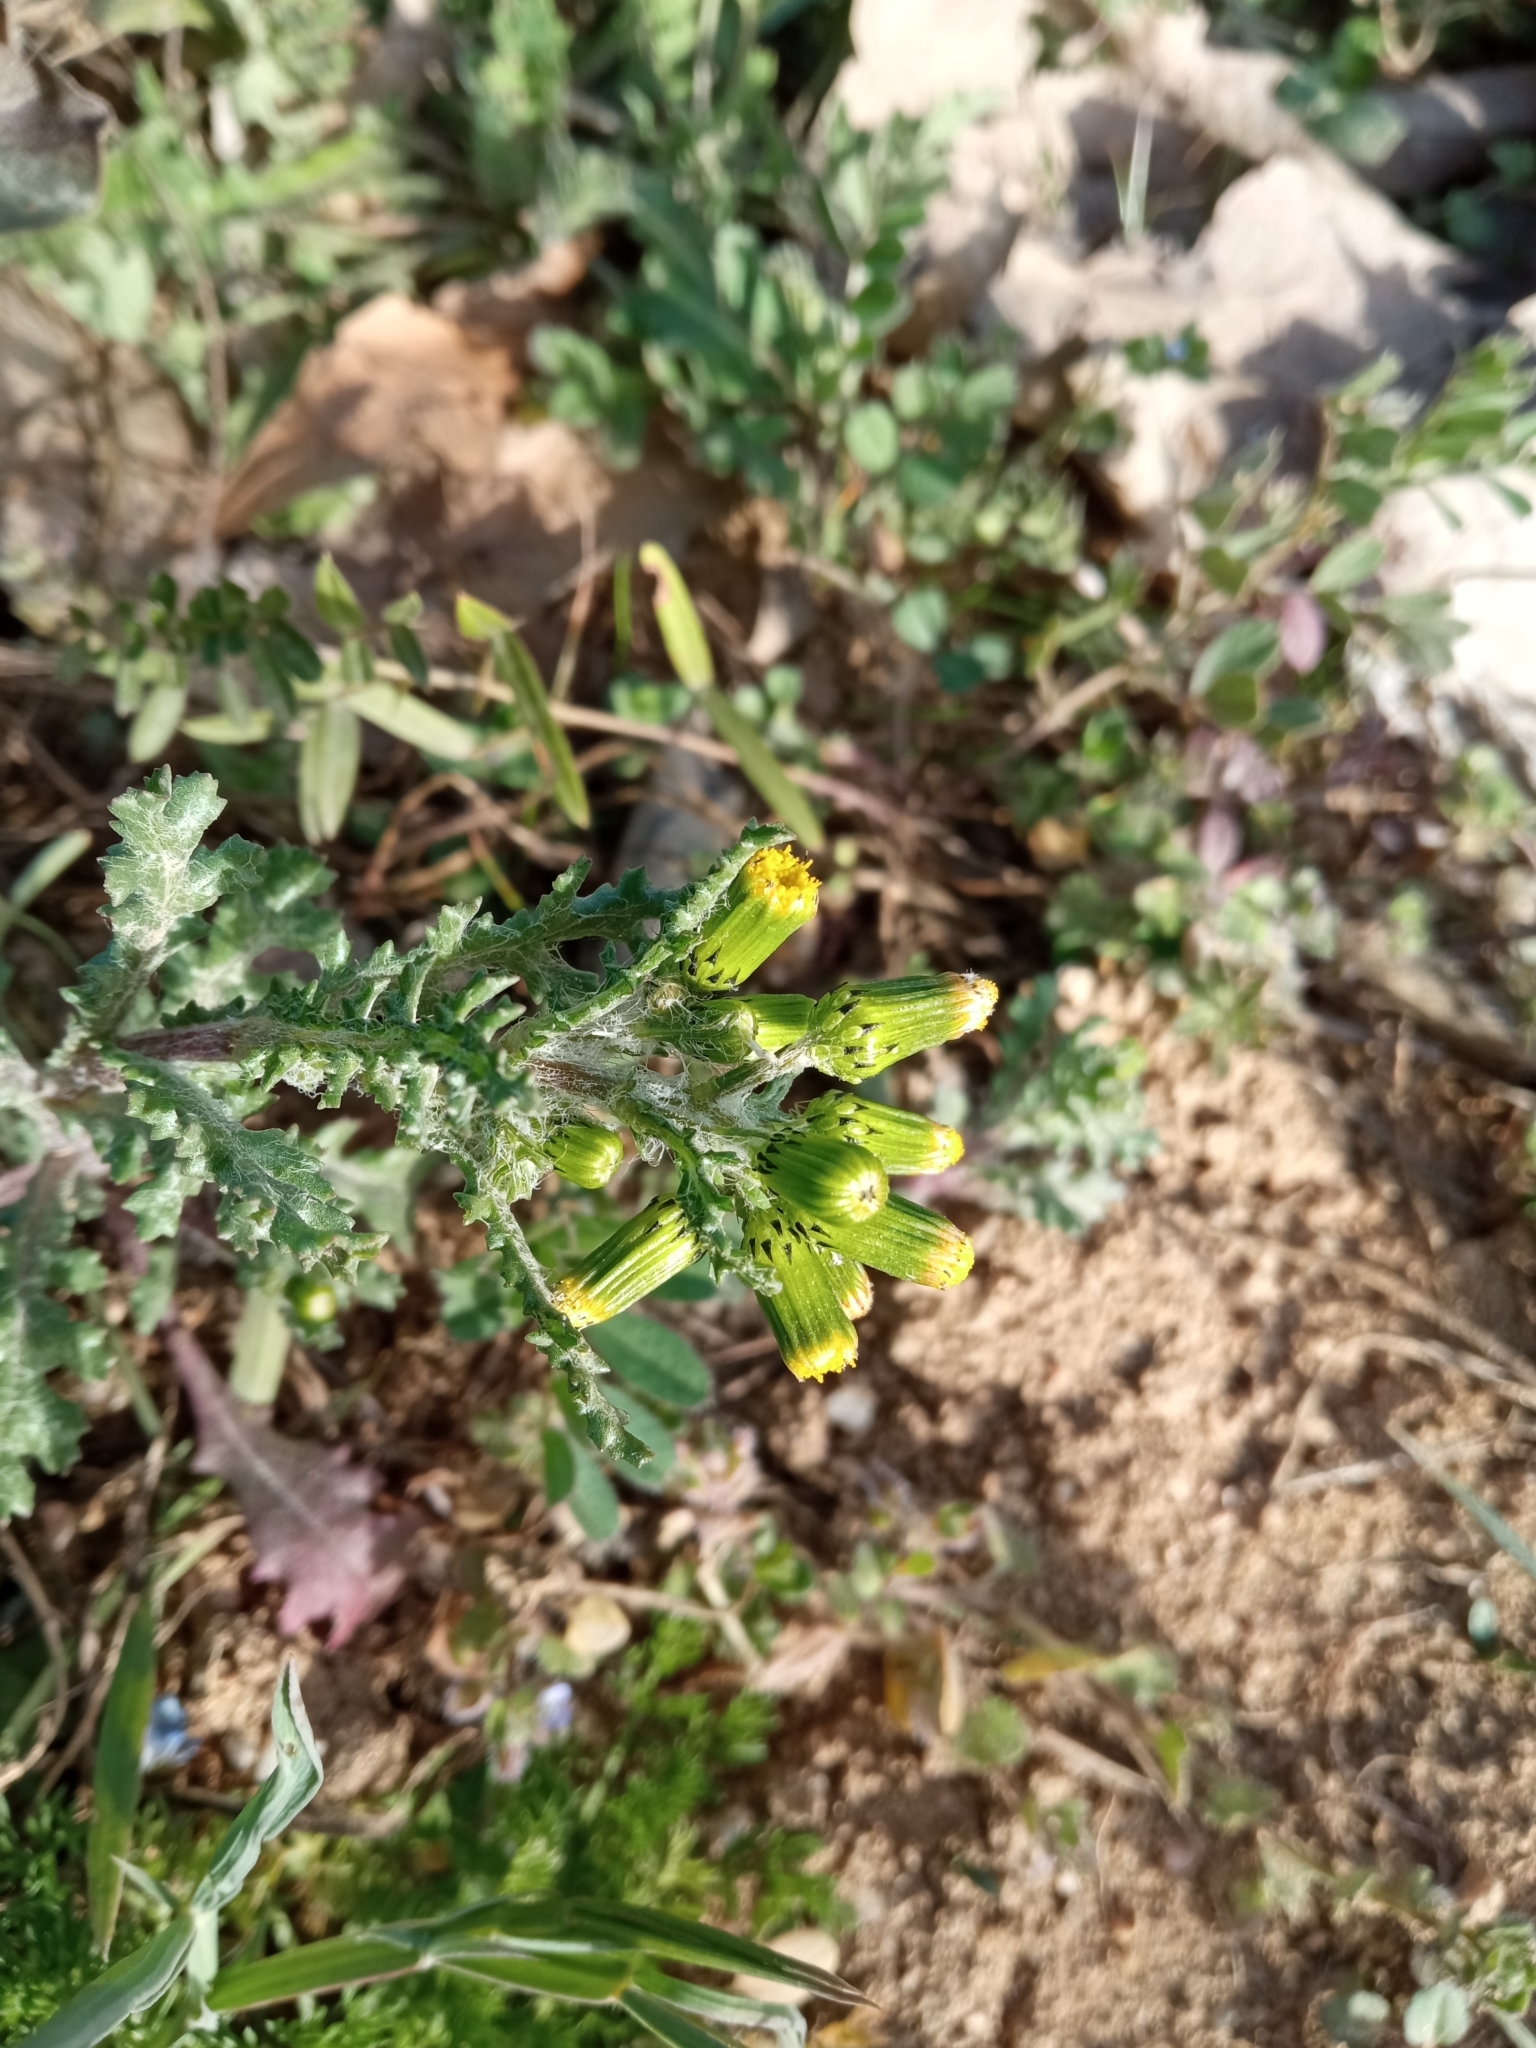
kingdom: Plantae
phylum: Tracheophyta
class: Magnoliopsida
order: Asterales
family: Asteraceae
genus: Senecio
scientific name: Senecio vulgaris
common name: Old-man-in-the-spring
